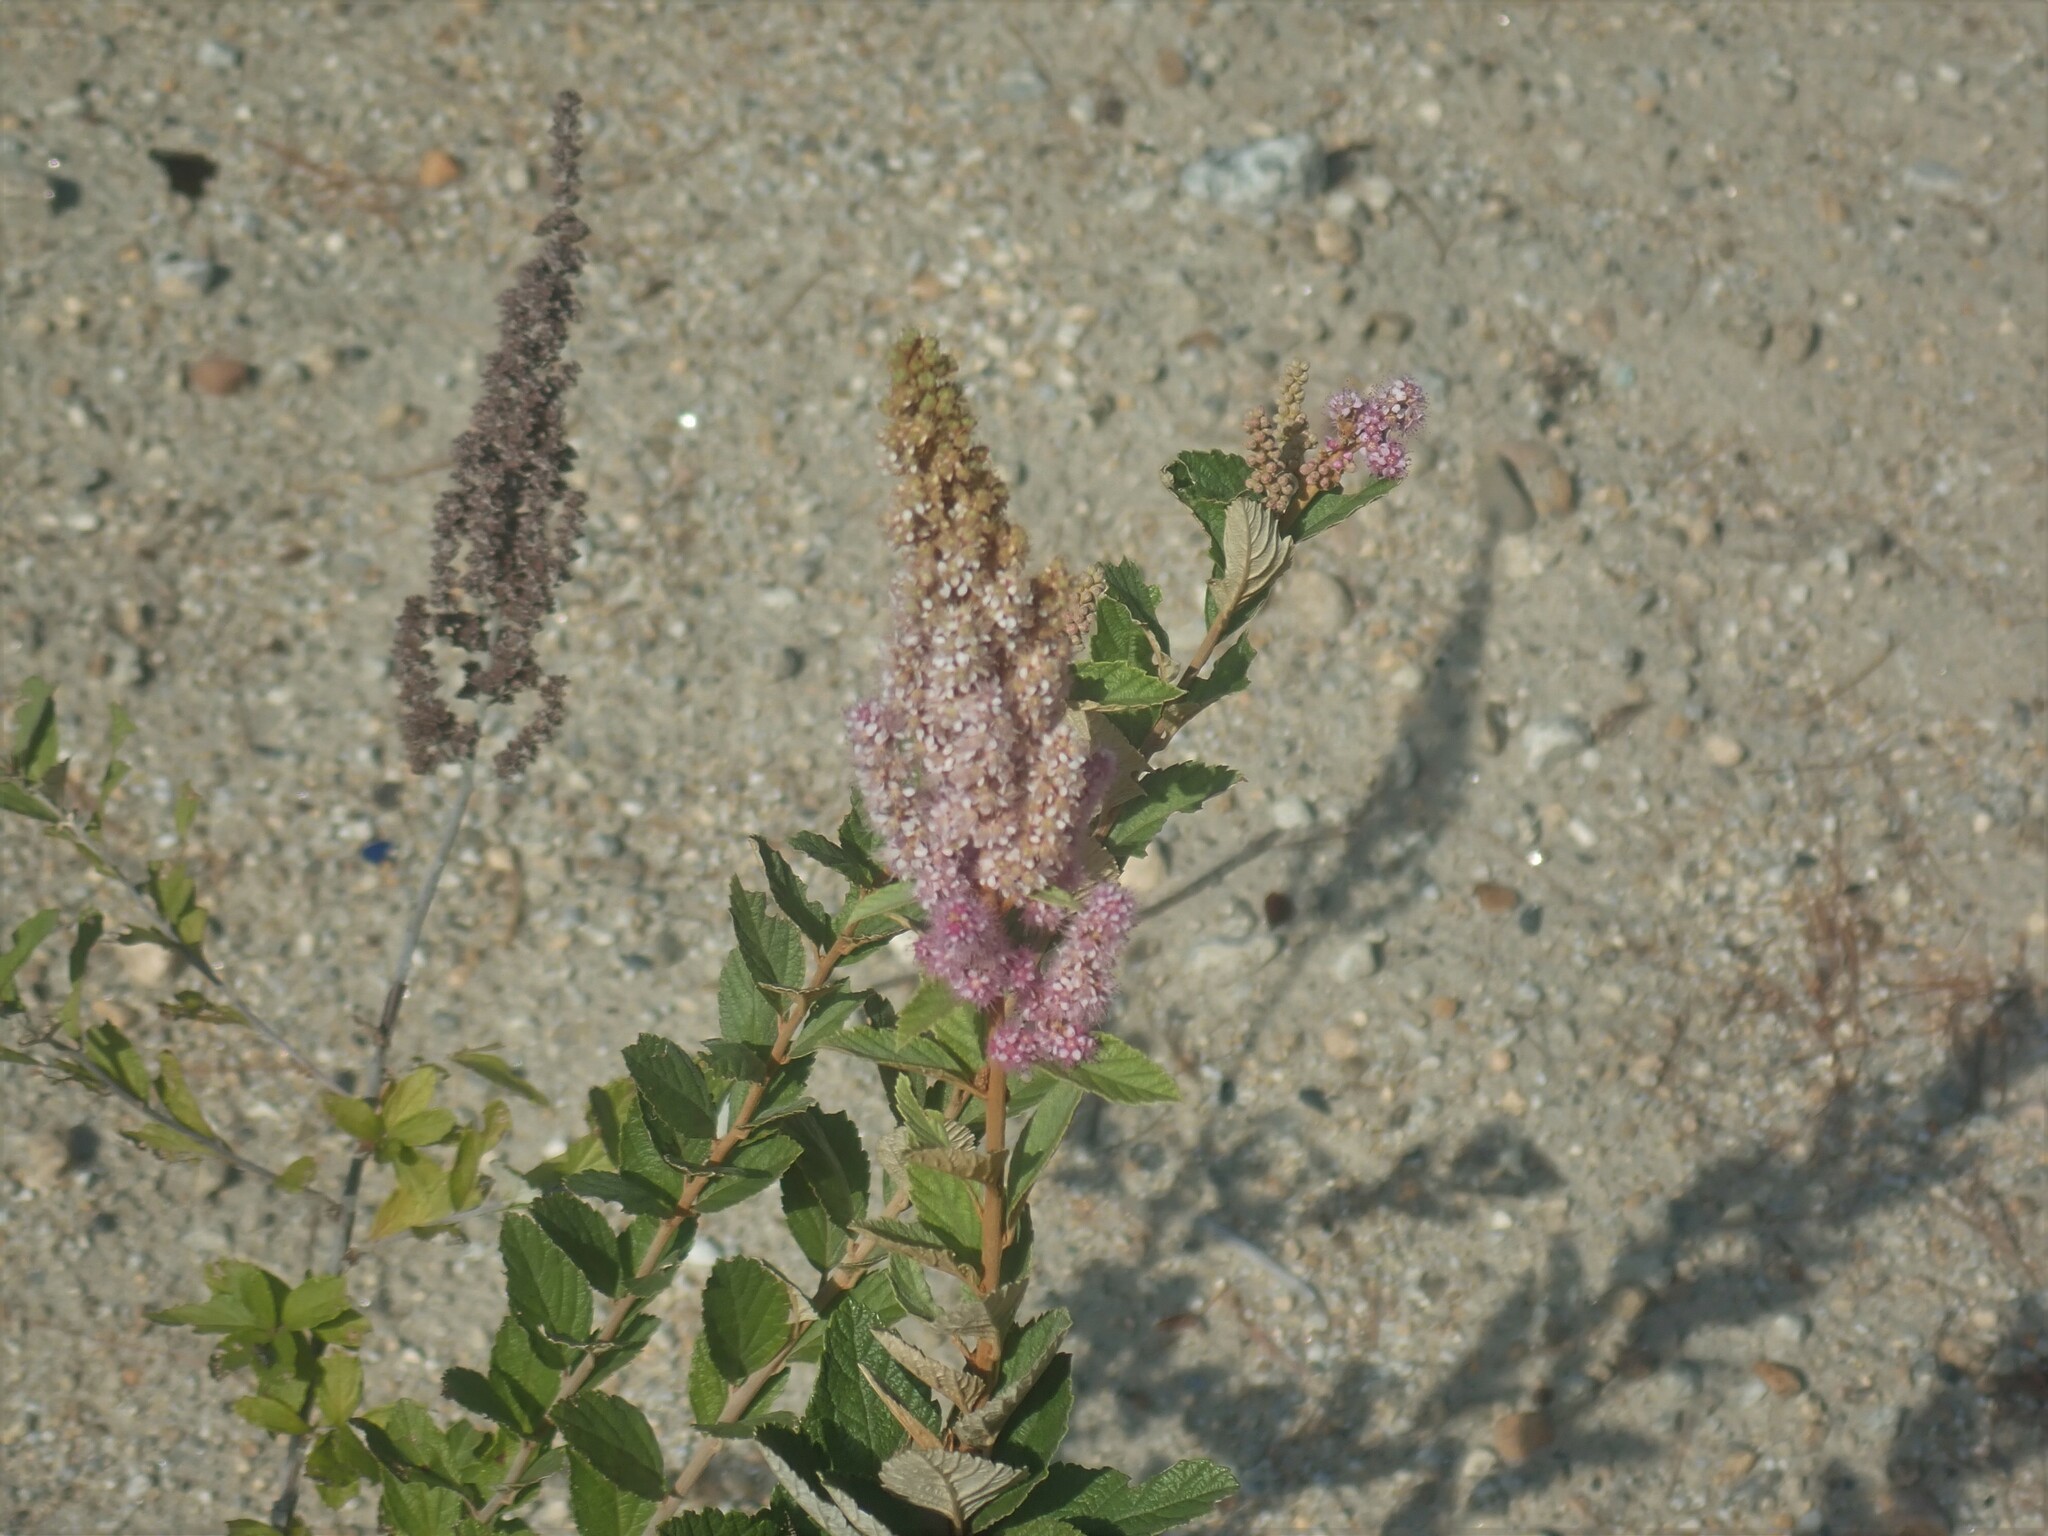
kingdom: Plantae
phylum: Tracheophyta
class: Magnoliopsida
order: Rosales
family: Rosaceae
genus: Spiraea
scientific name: Spiraea tomentosa
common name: Hardhack
